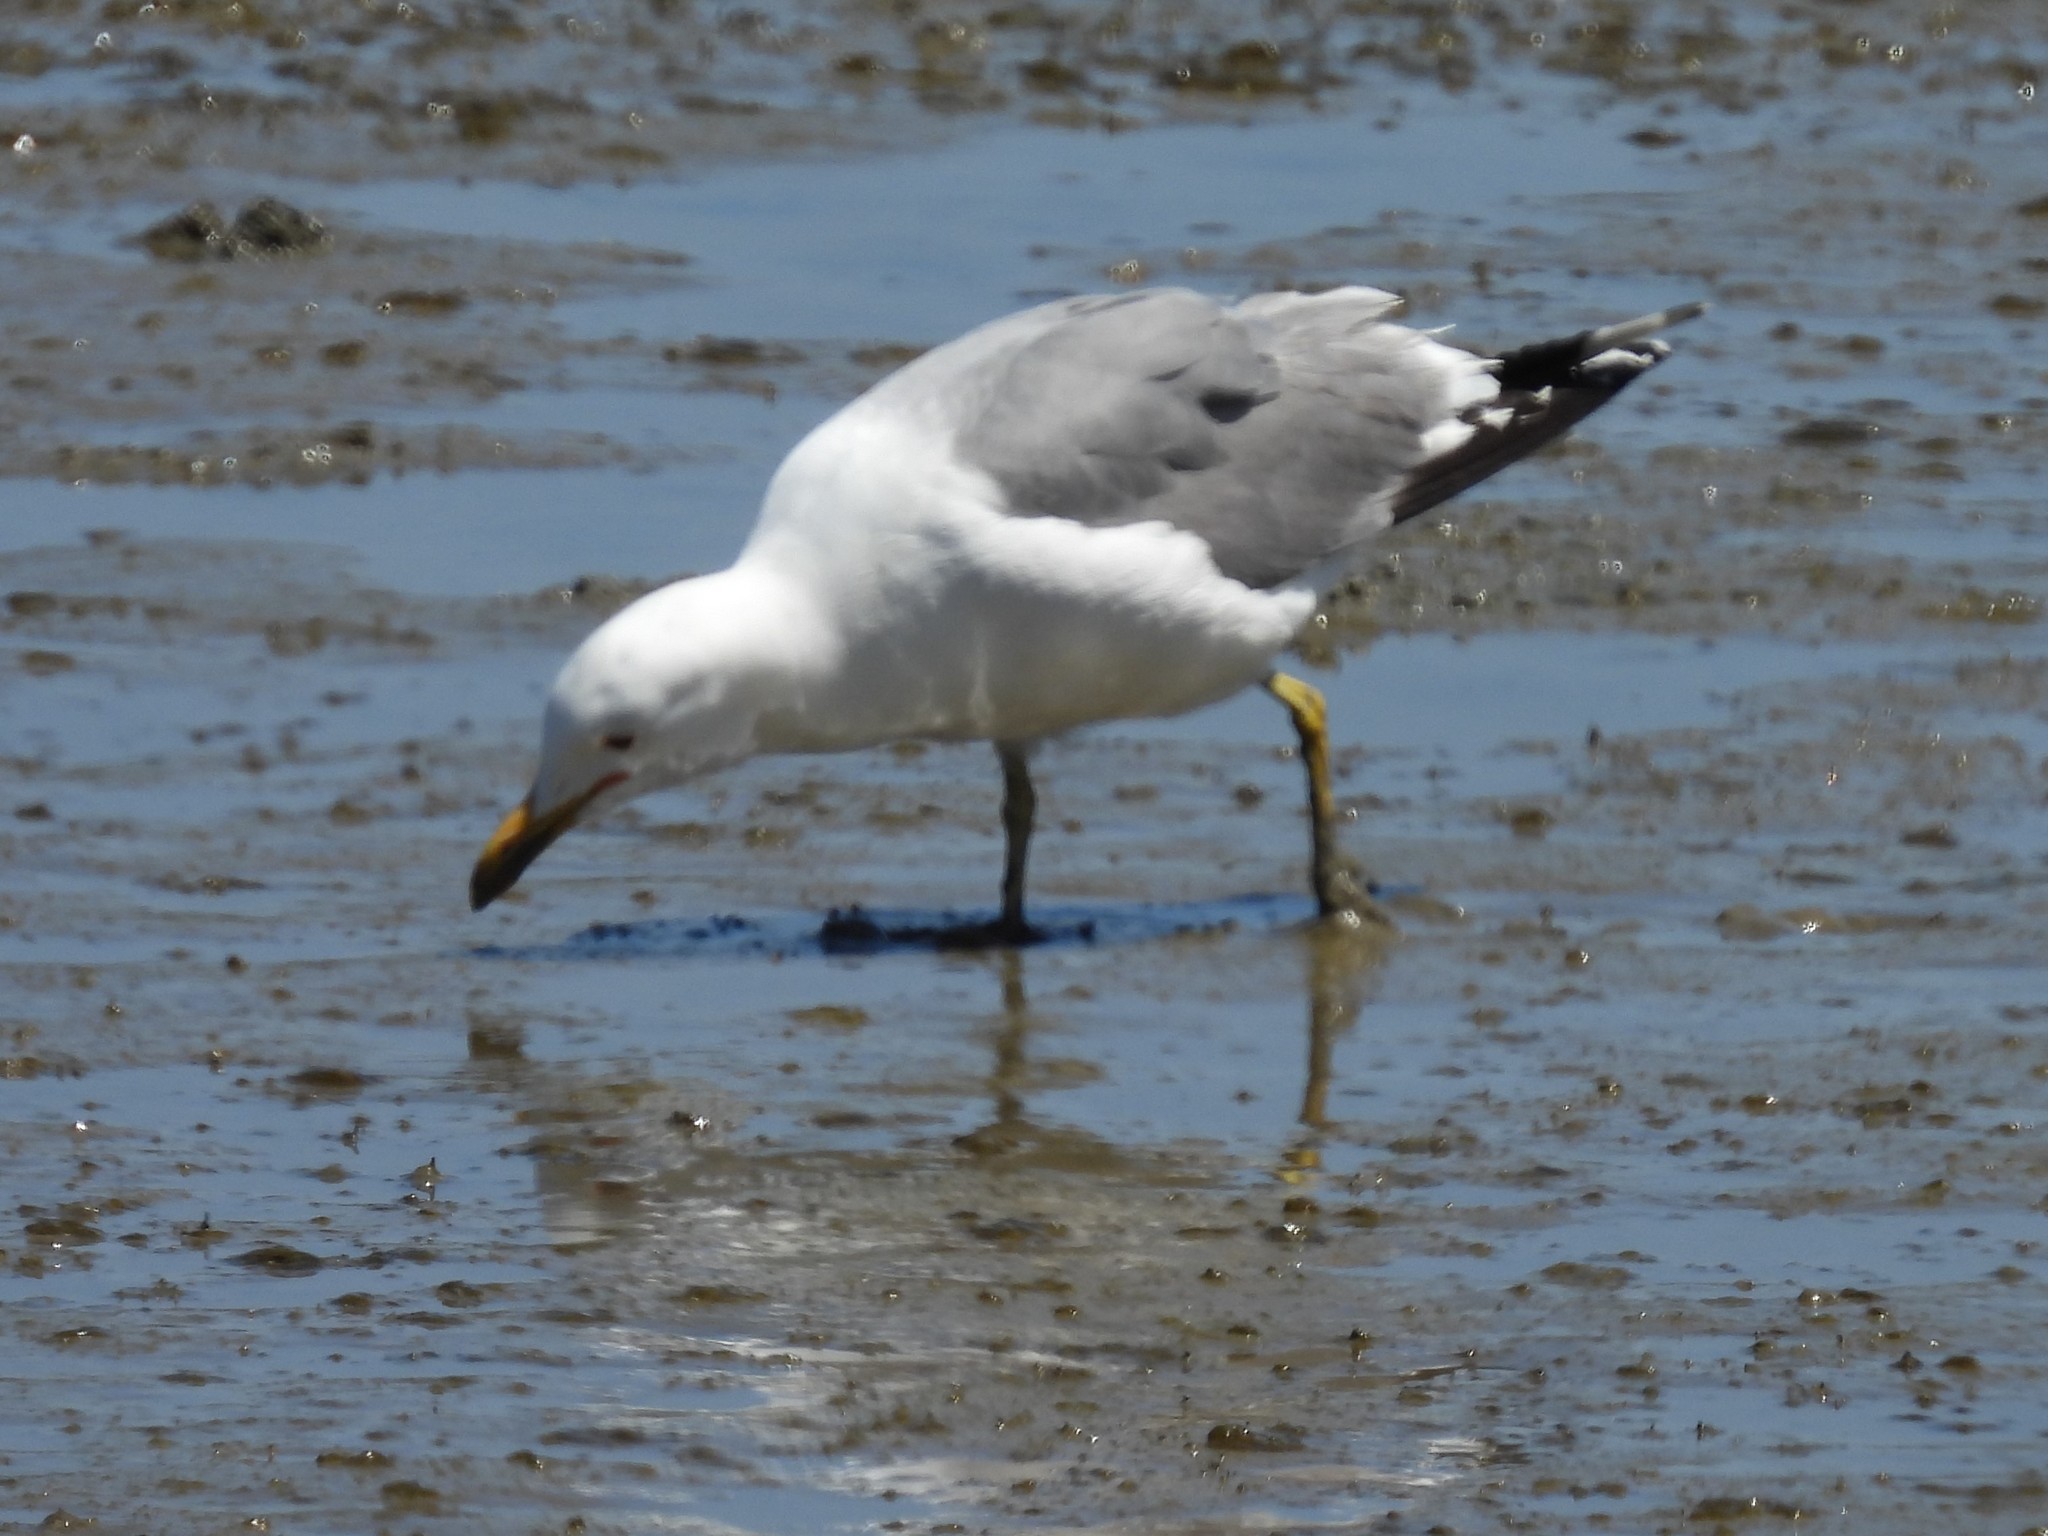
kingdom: Animalia
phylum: Chordata
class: Aves
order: Charadriiformes
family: Laridae
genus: Larus
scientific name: Larus californicus
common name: California gull
